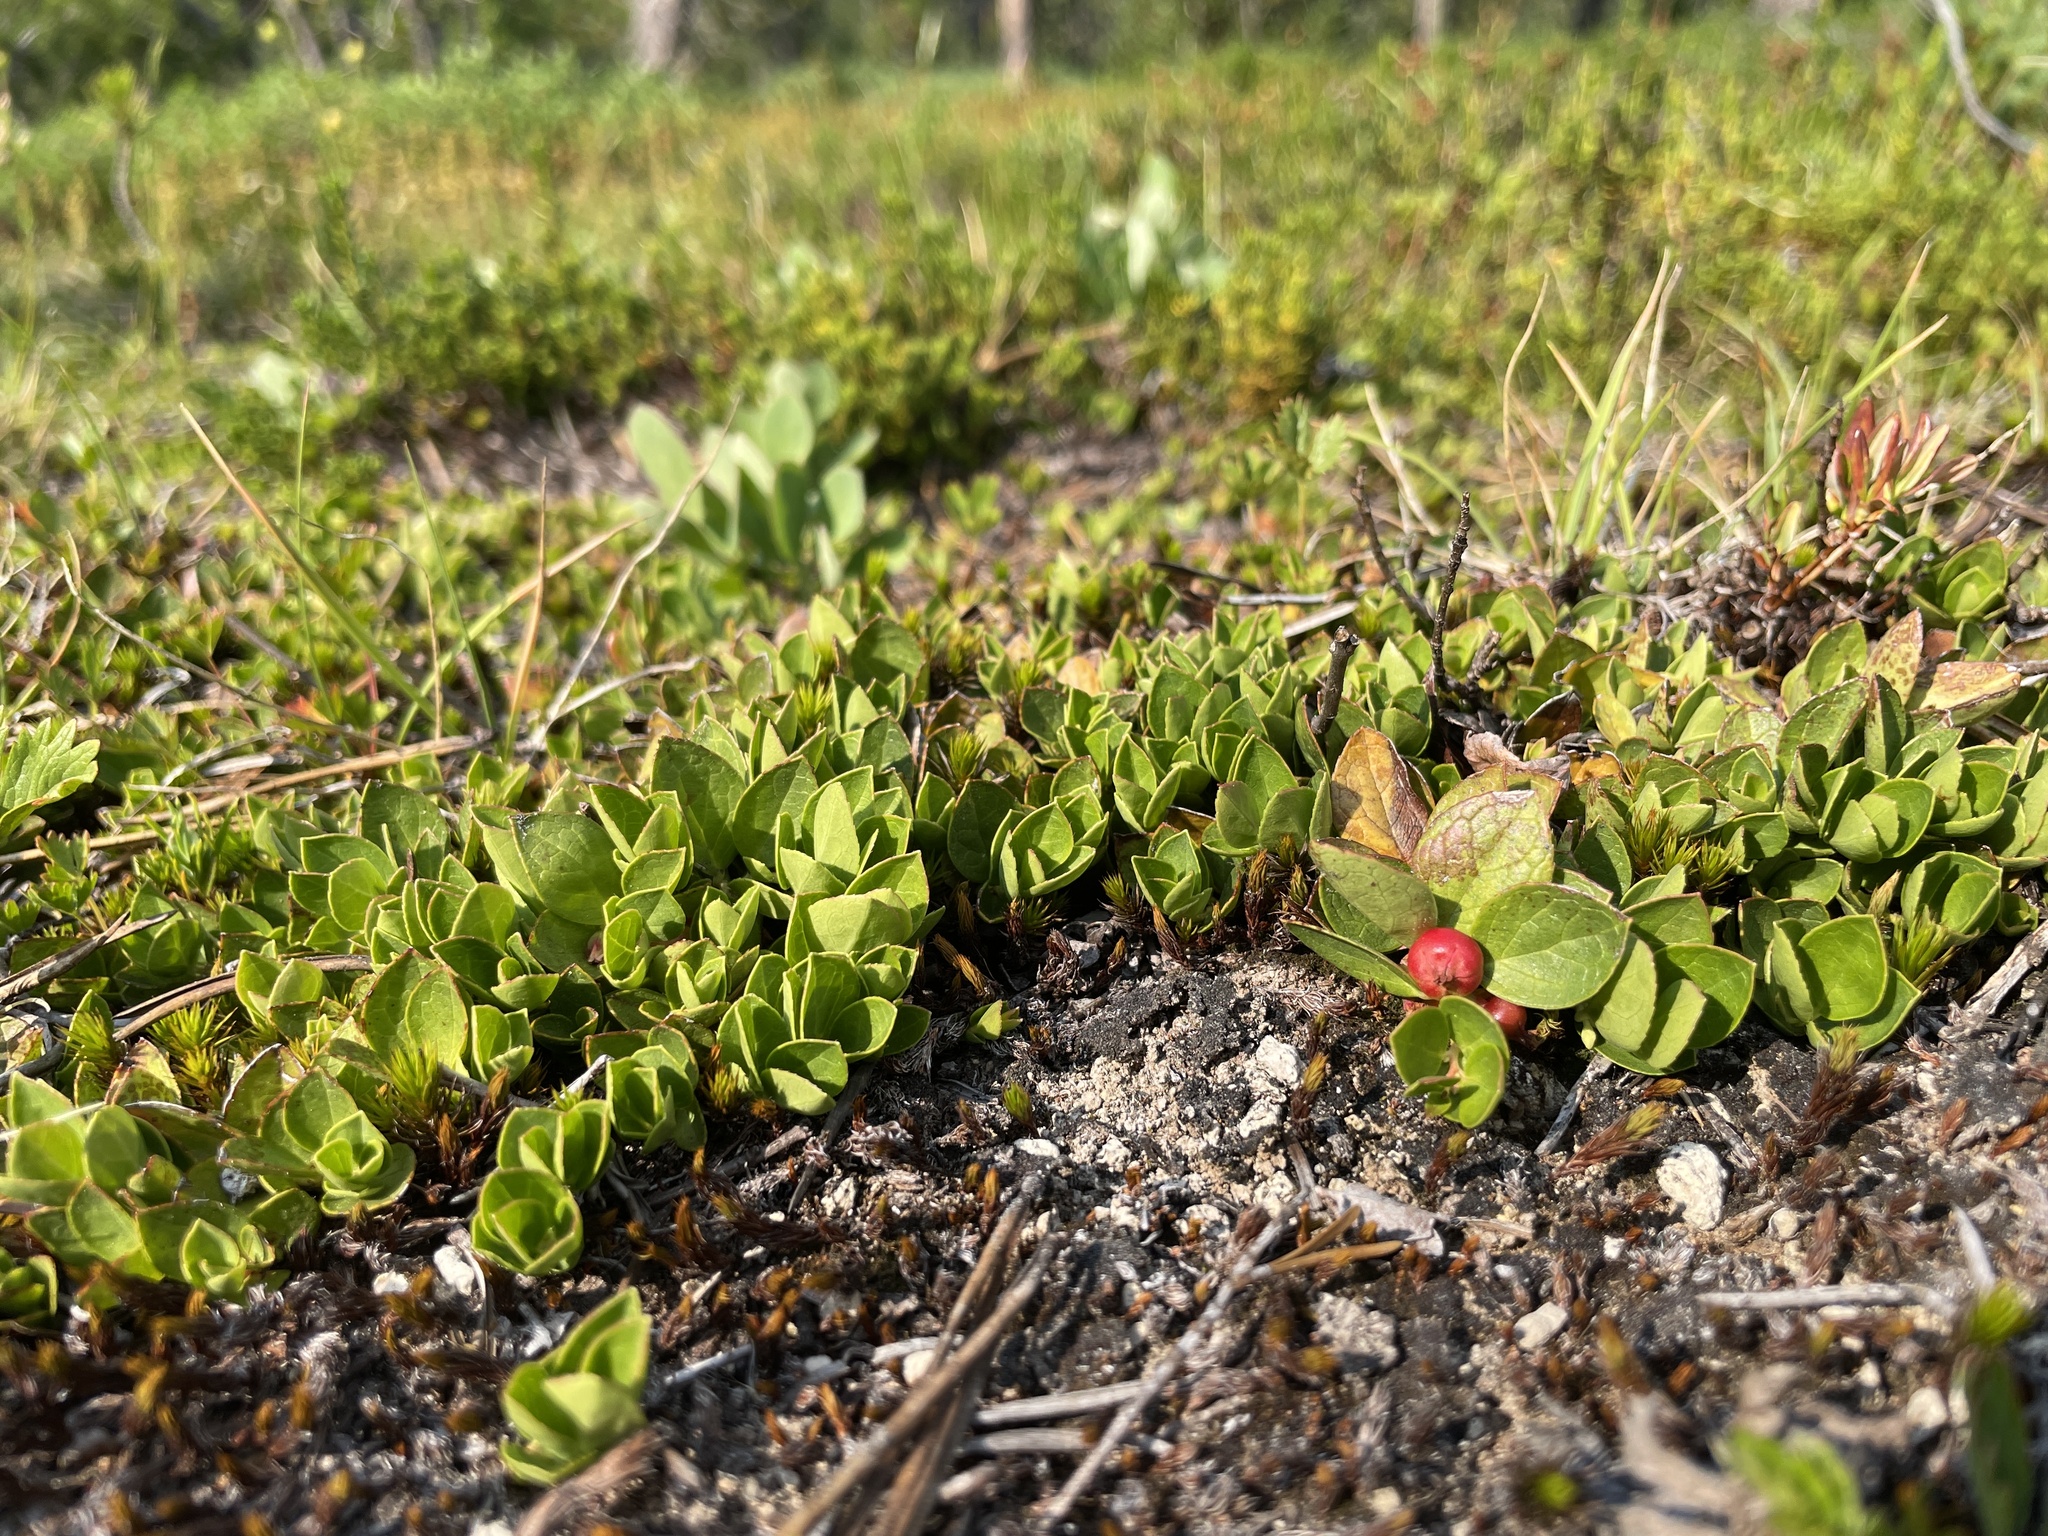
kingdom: Plantae
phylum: Tracheophyta
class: Magnoliopsida
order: Ericales
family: Ericaceae
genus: Gaultheria
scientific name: Gaultheria humifusa
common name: Alpine wintergreen
